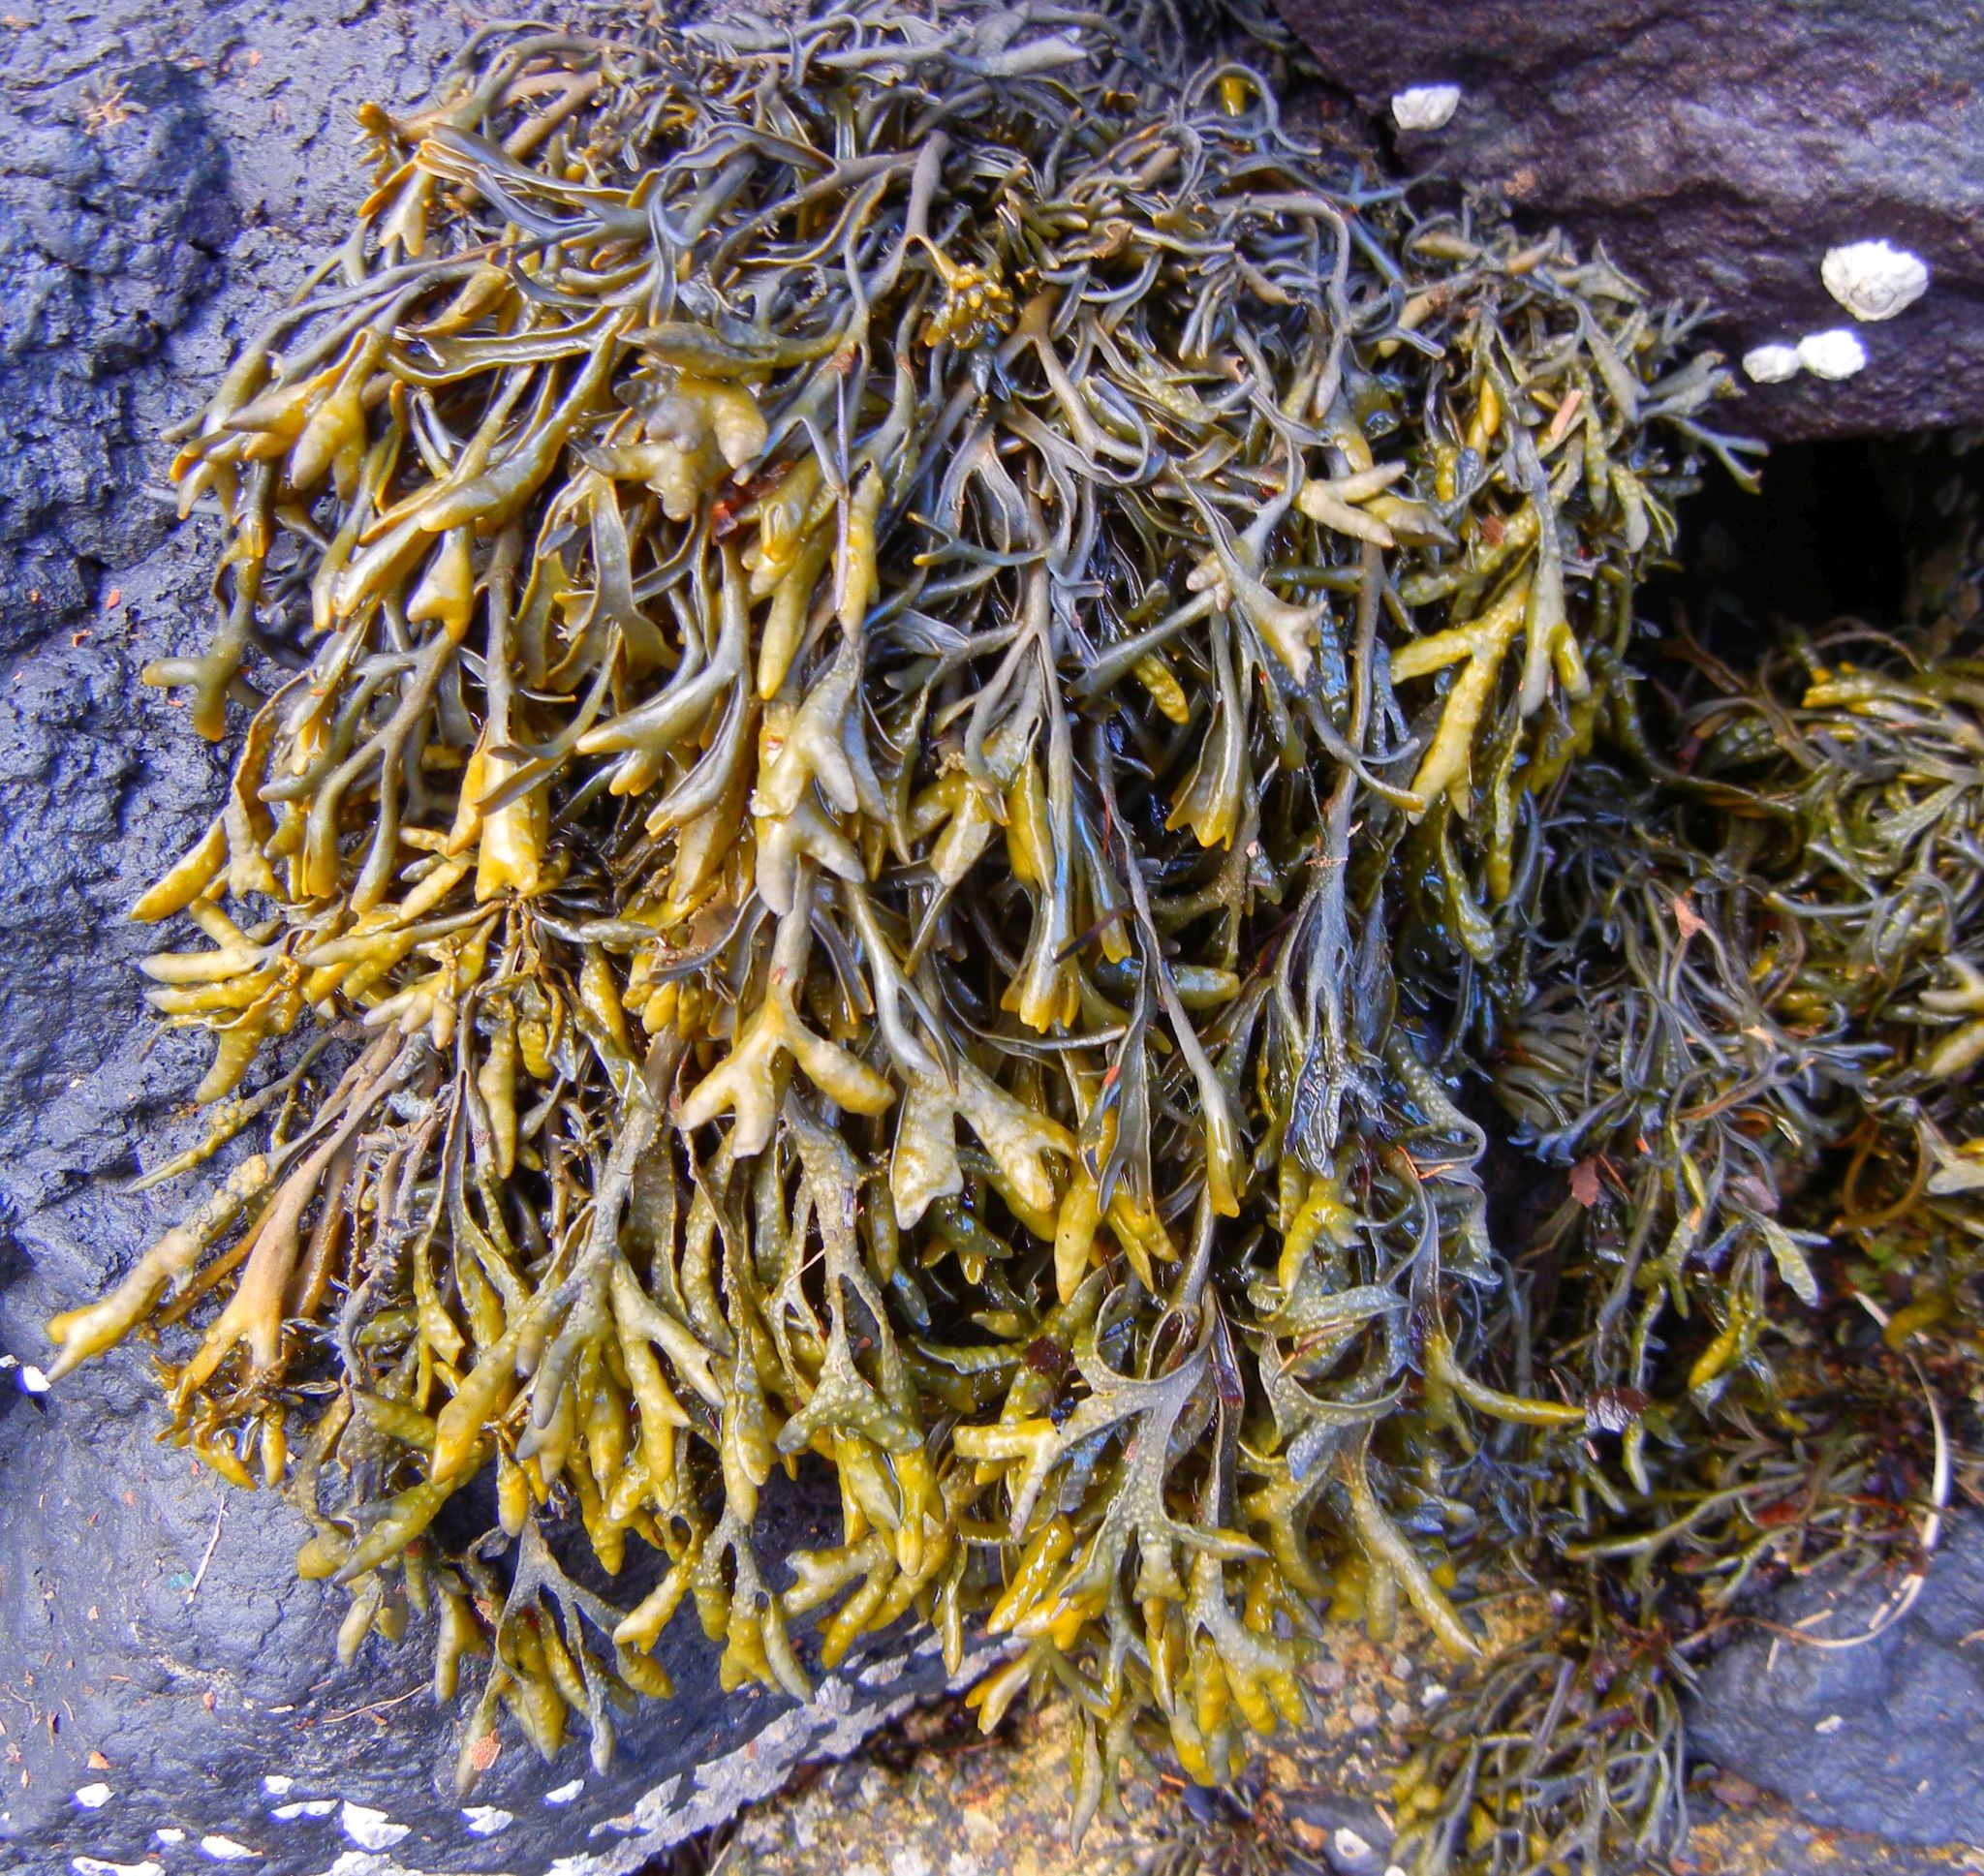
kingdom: Chromista
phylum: Ochrophyta
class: Phaeophyceae
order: Fucales
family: Fucaceae
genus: Pelvetia
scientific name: Pelvetia canaliculata
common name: Channelled wrack
